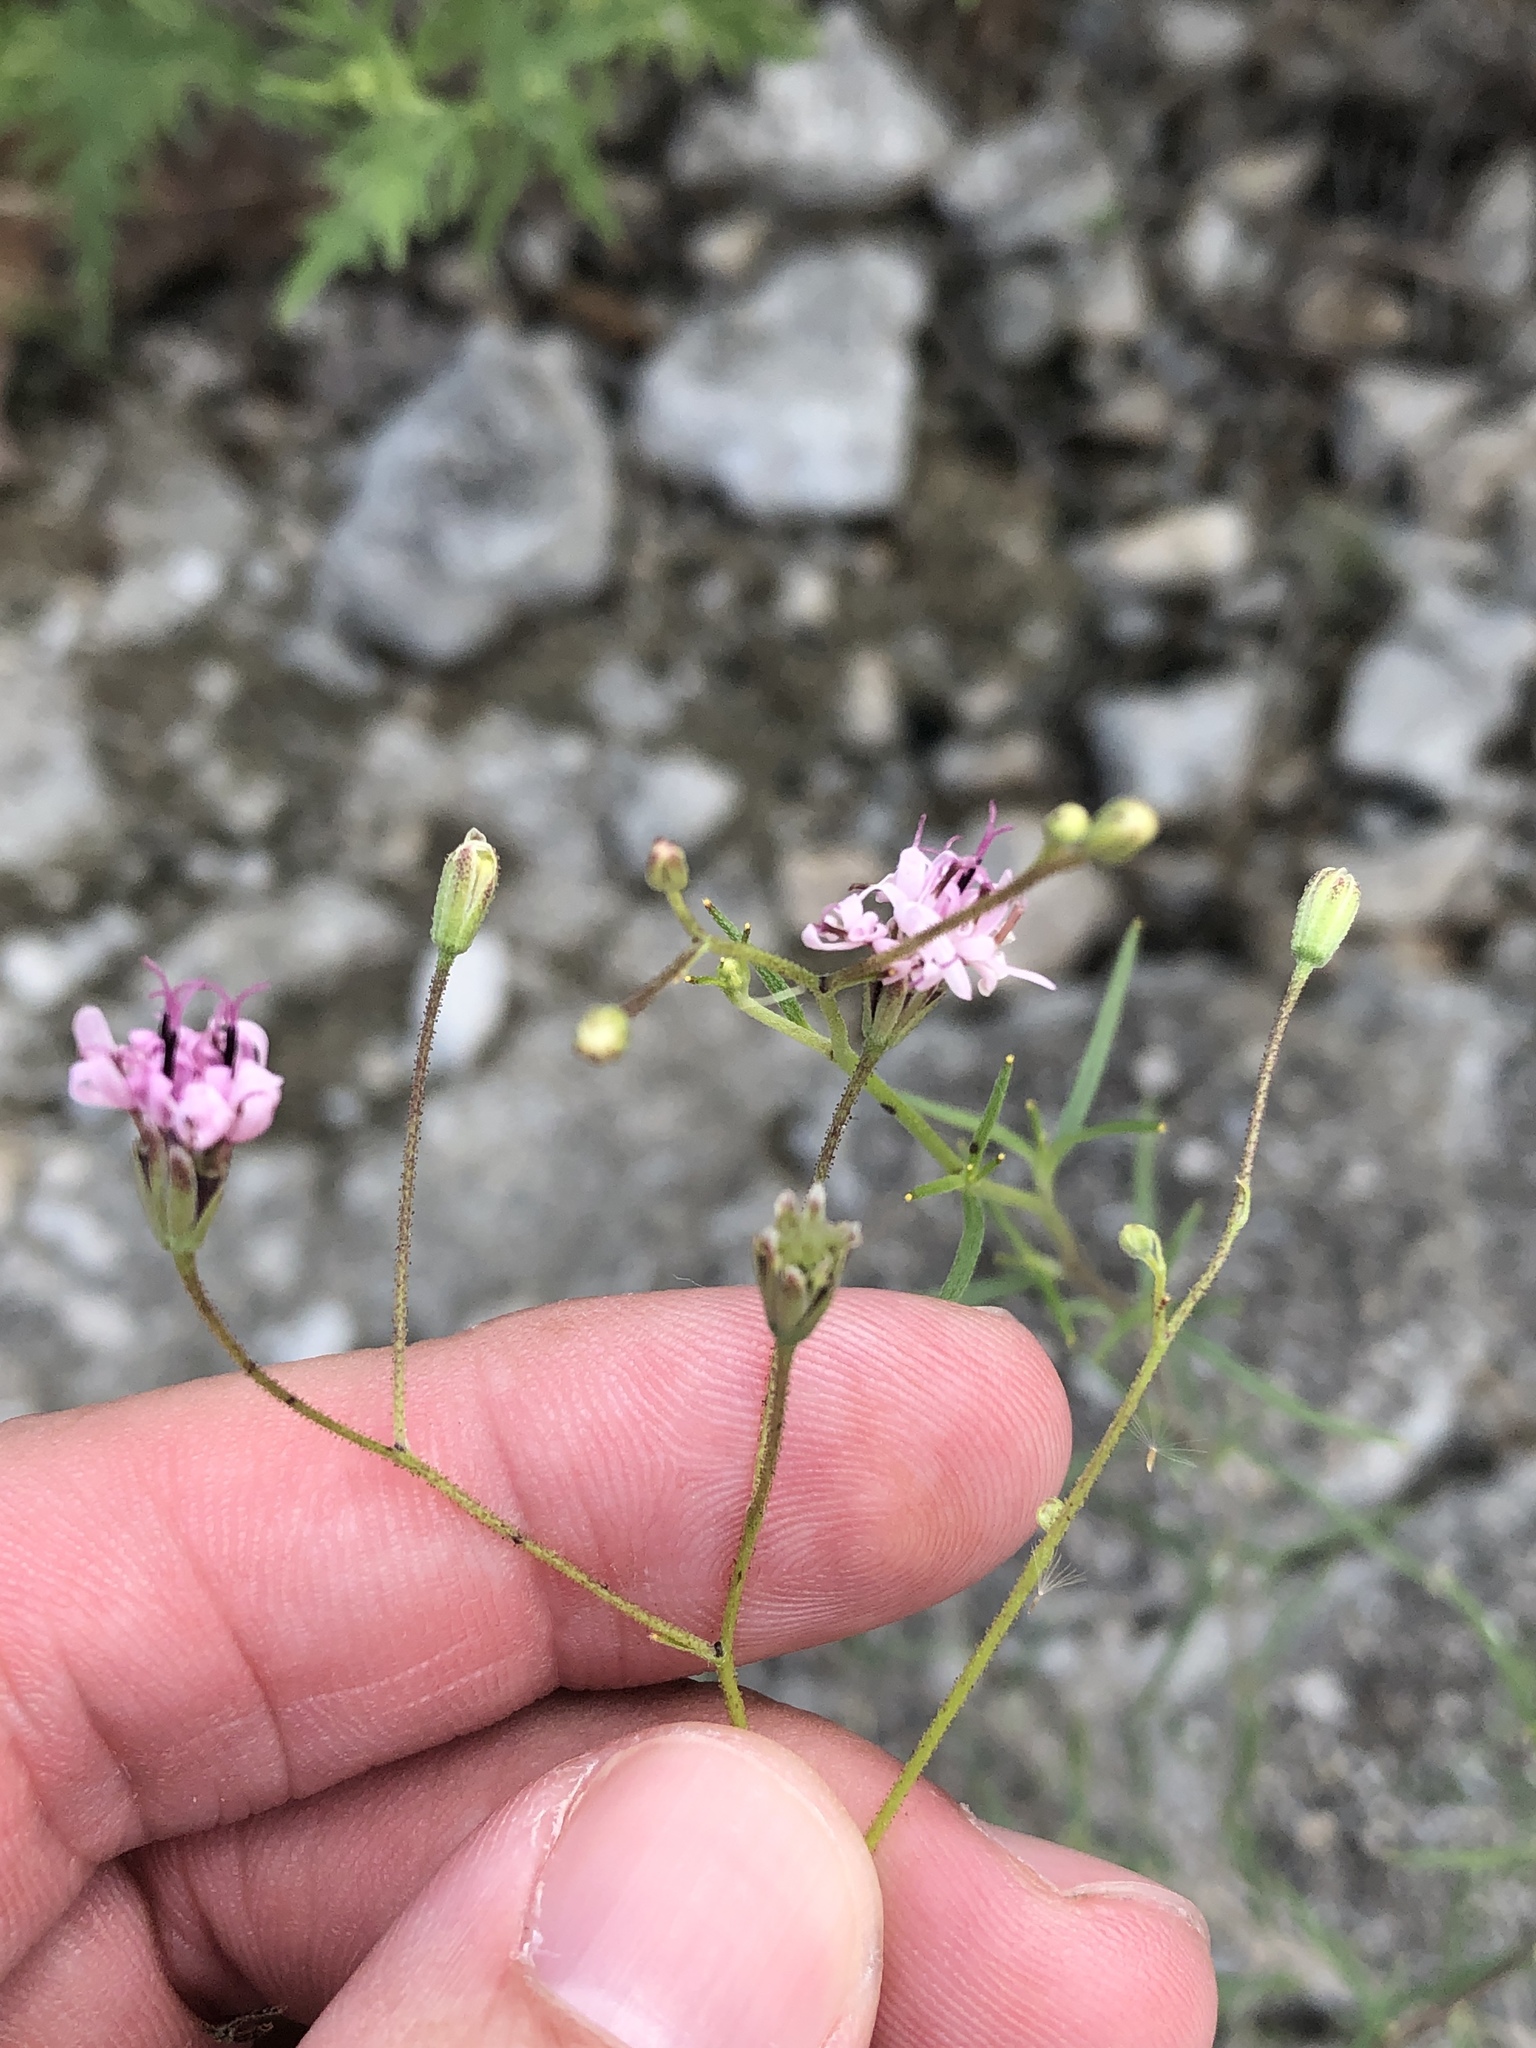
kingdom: Plantae
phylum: Tracheophyta
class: Magnoliopsida
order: Asterales
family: Asteraceae
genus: Palafoxia
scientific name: Palafoxia callosa
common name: Small palafox
